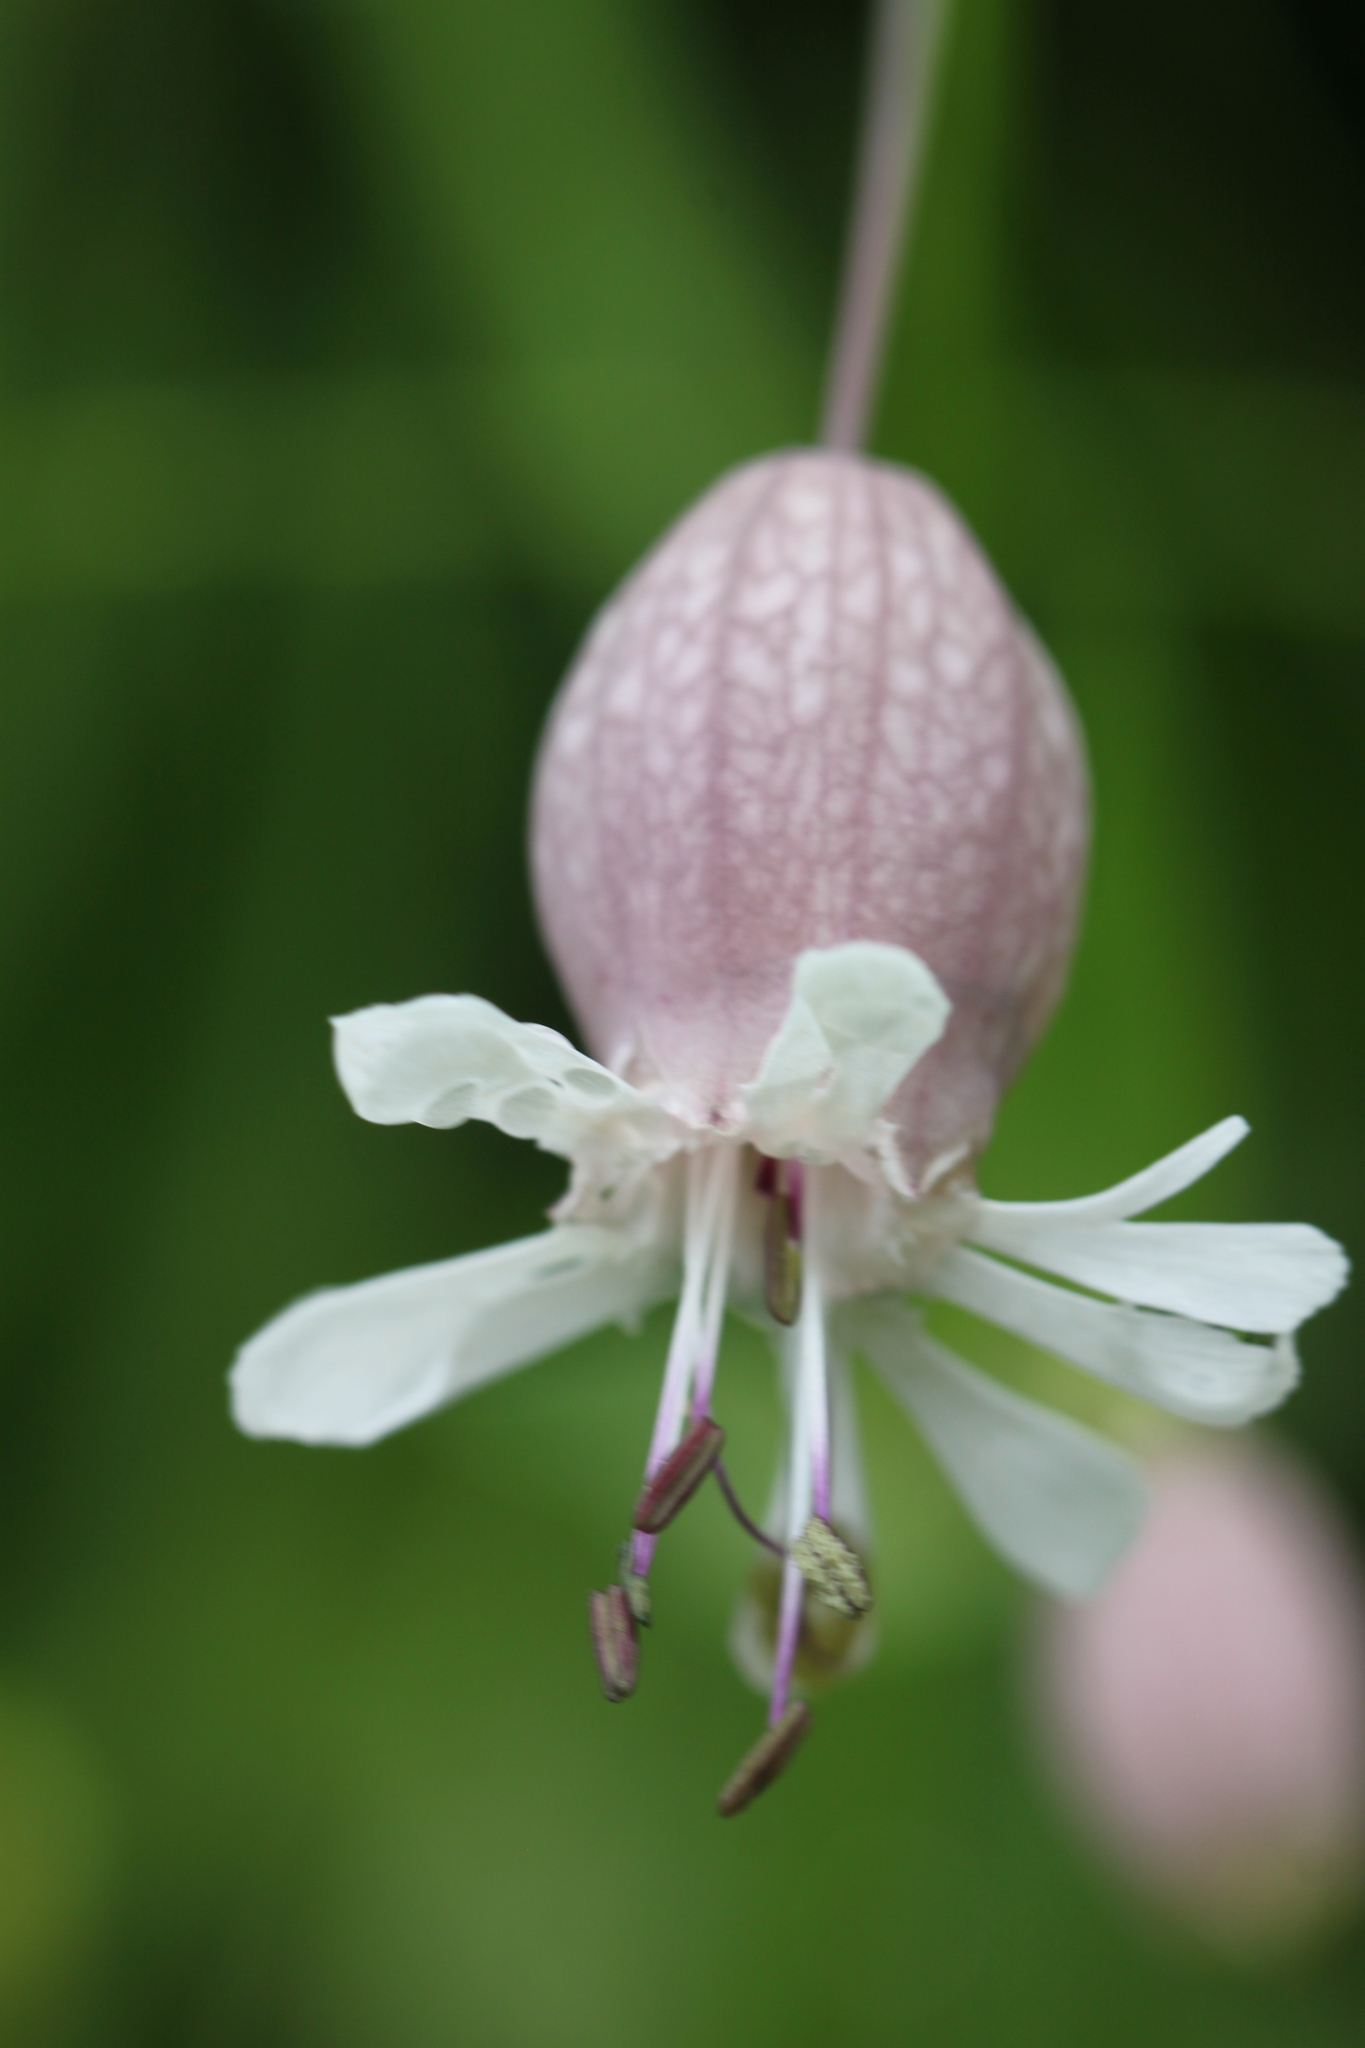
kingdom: Plantae
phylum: Tracheophyta
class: Magnoliopsida
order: Caryophyllales
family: Caryophyllaceae
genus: Silene
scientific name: Silene vulgaris
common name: Bladder campion
